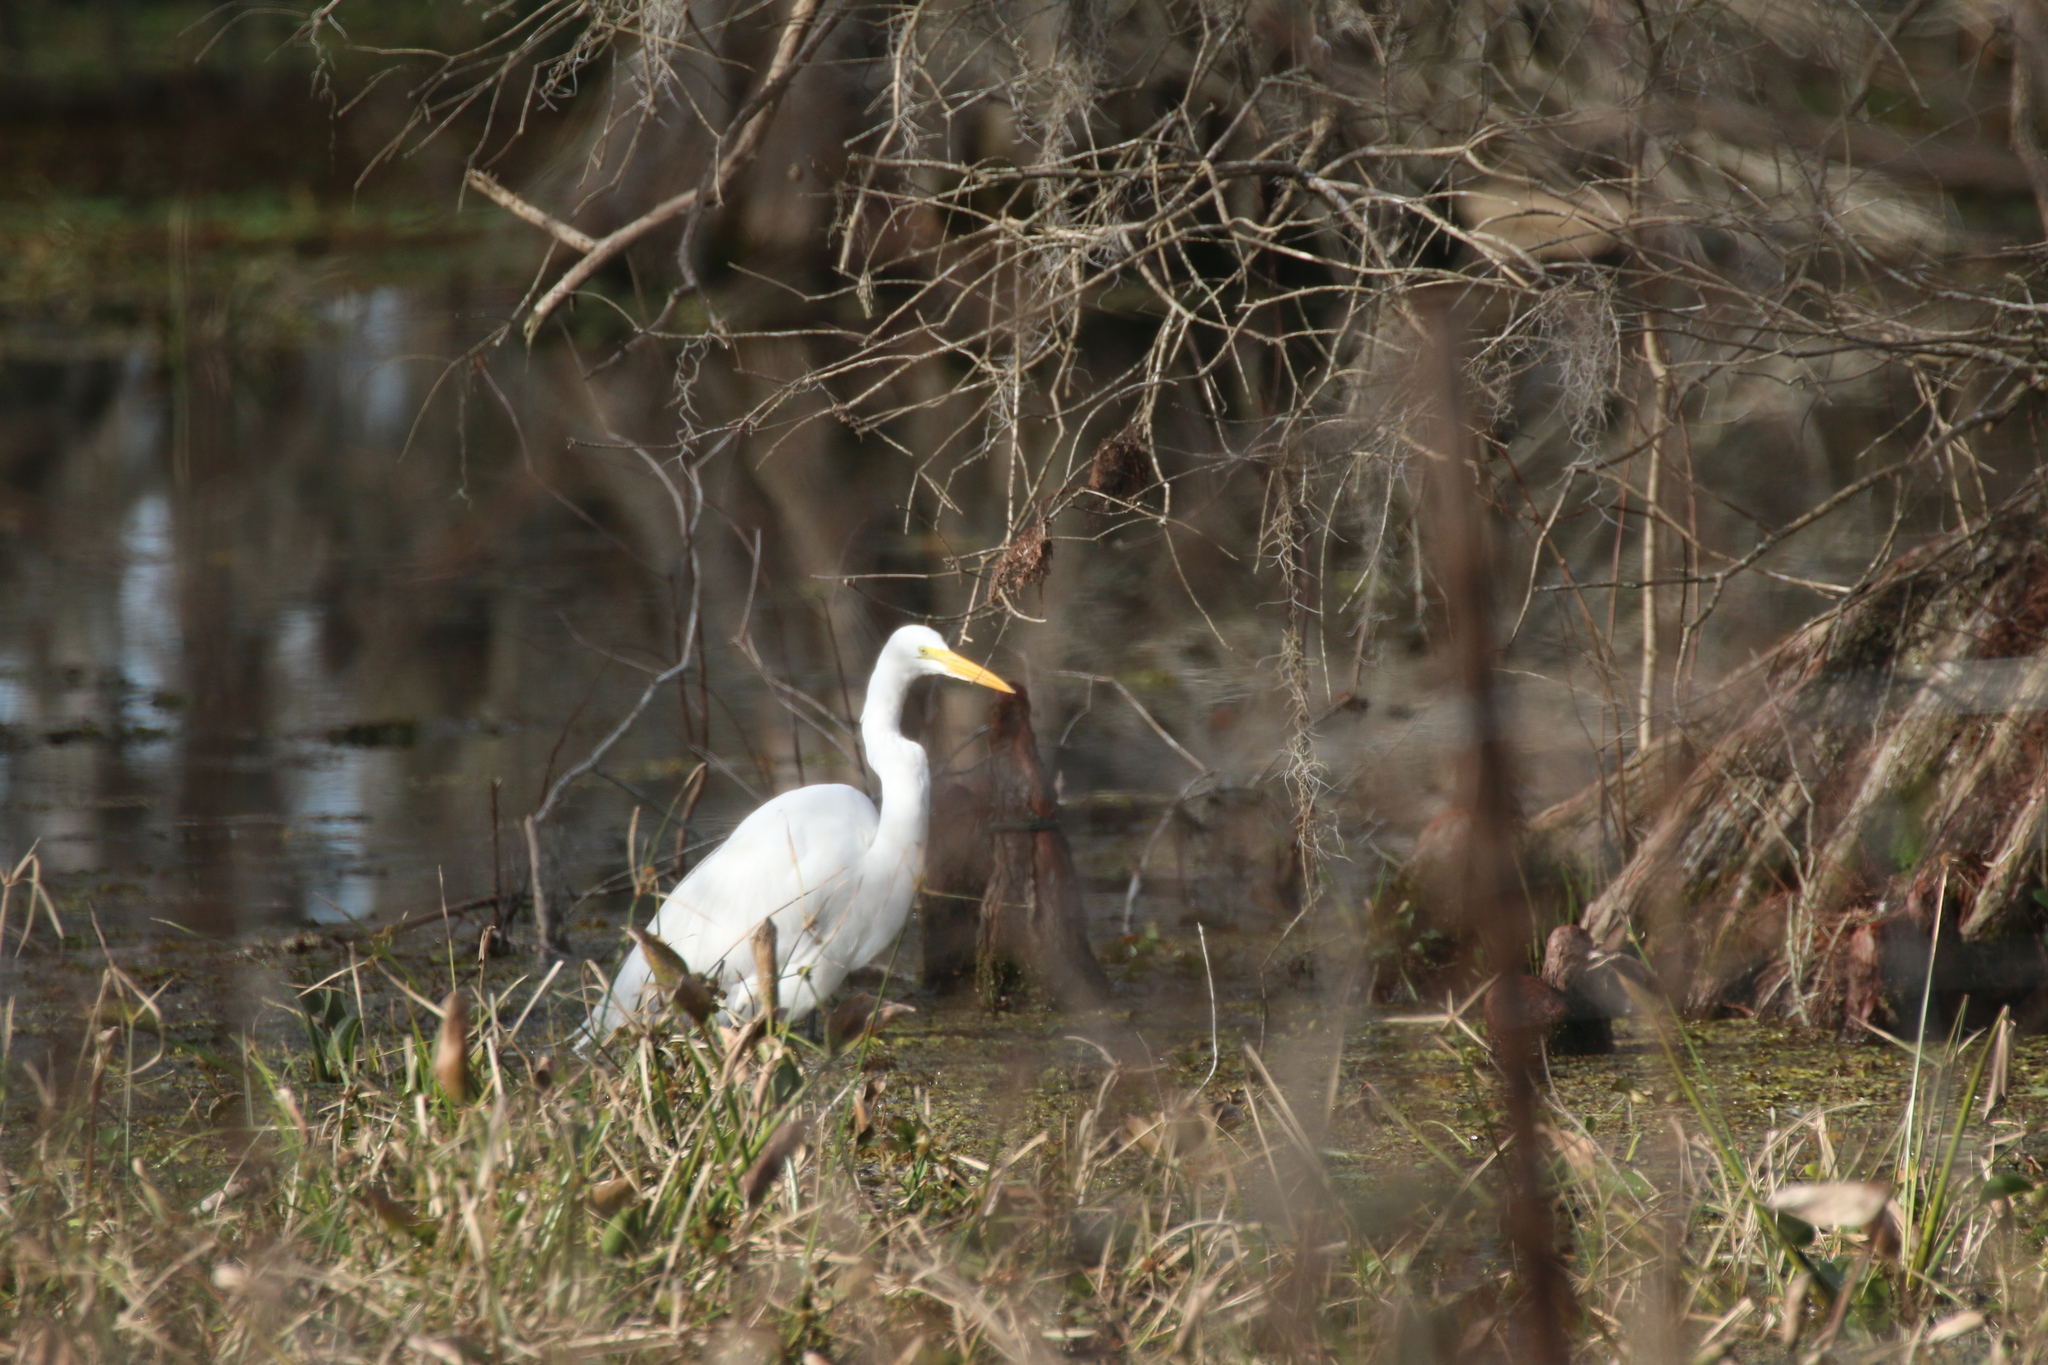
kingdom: Animalia
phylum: Chordata
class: Aves
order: Pelecaniformes
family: Ardeidae
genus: Ardea
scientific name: Ardea alba
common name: Great egret
